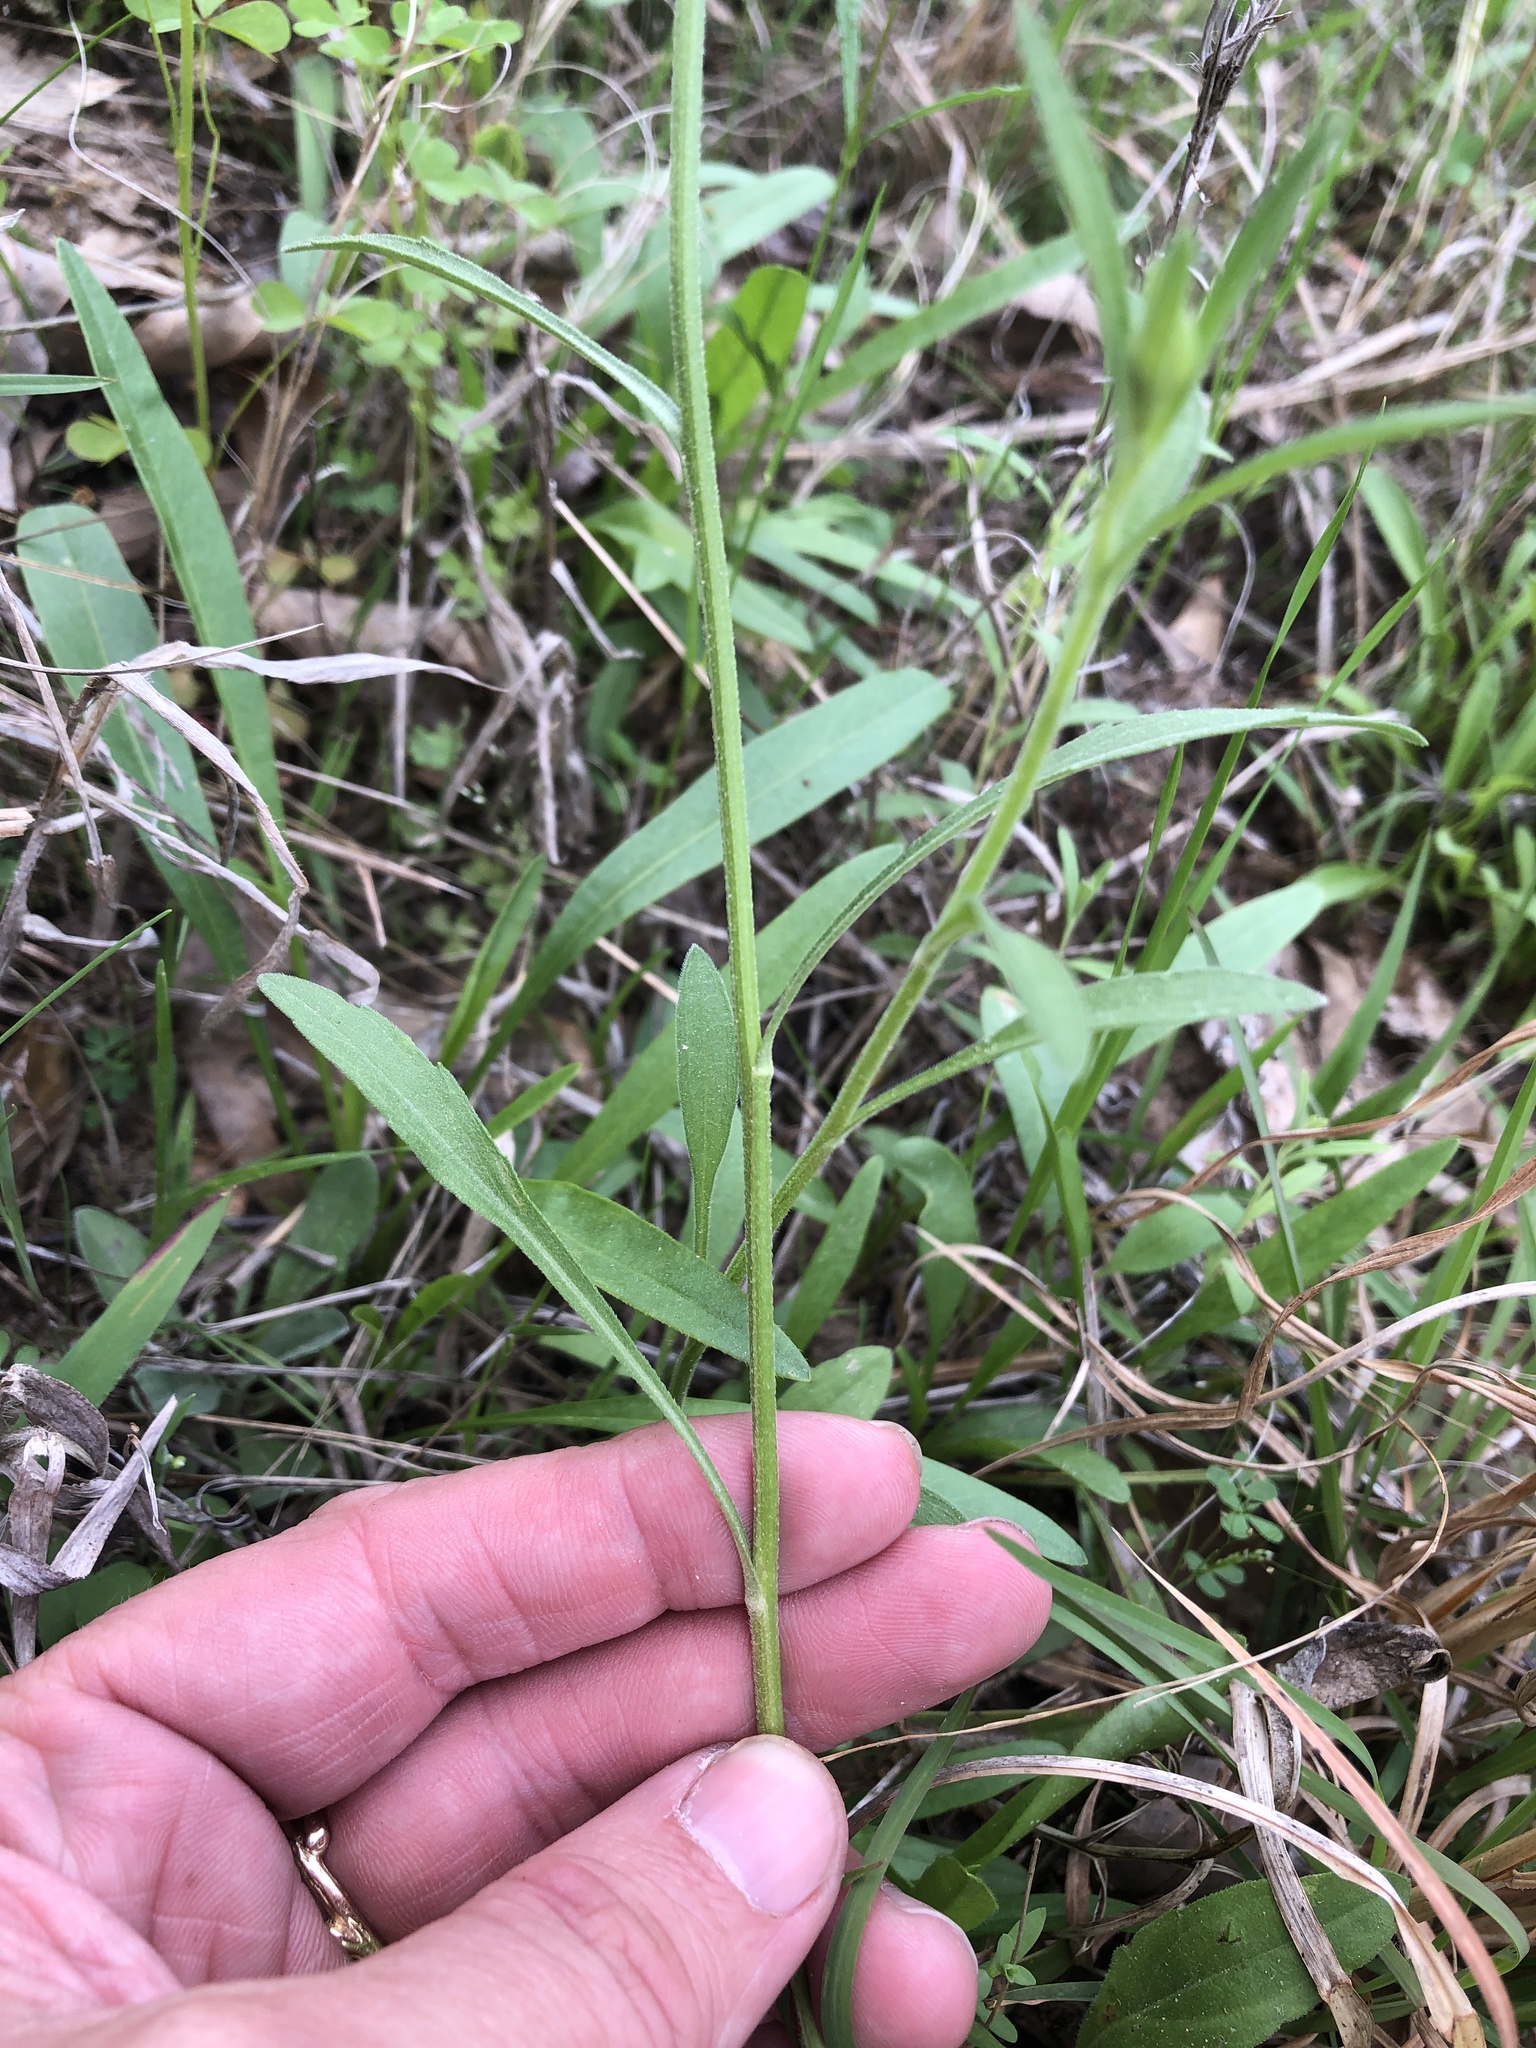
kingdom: Plantae
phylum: Tracheophyta
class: Magnoliopsida
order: Asterales
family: Asteraceae
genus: Erigeron
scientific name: Erigeron strigosus
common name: Common eastern fleabane
